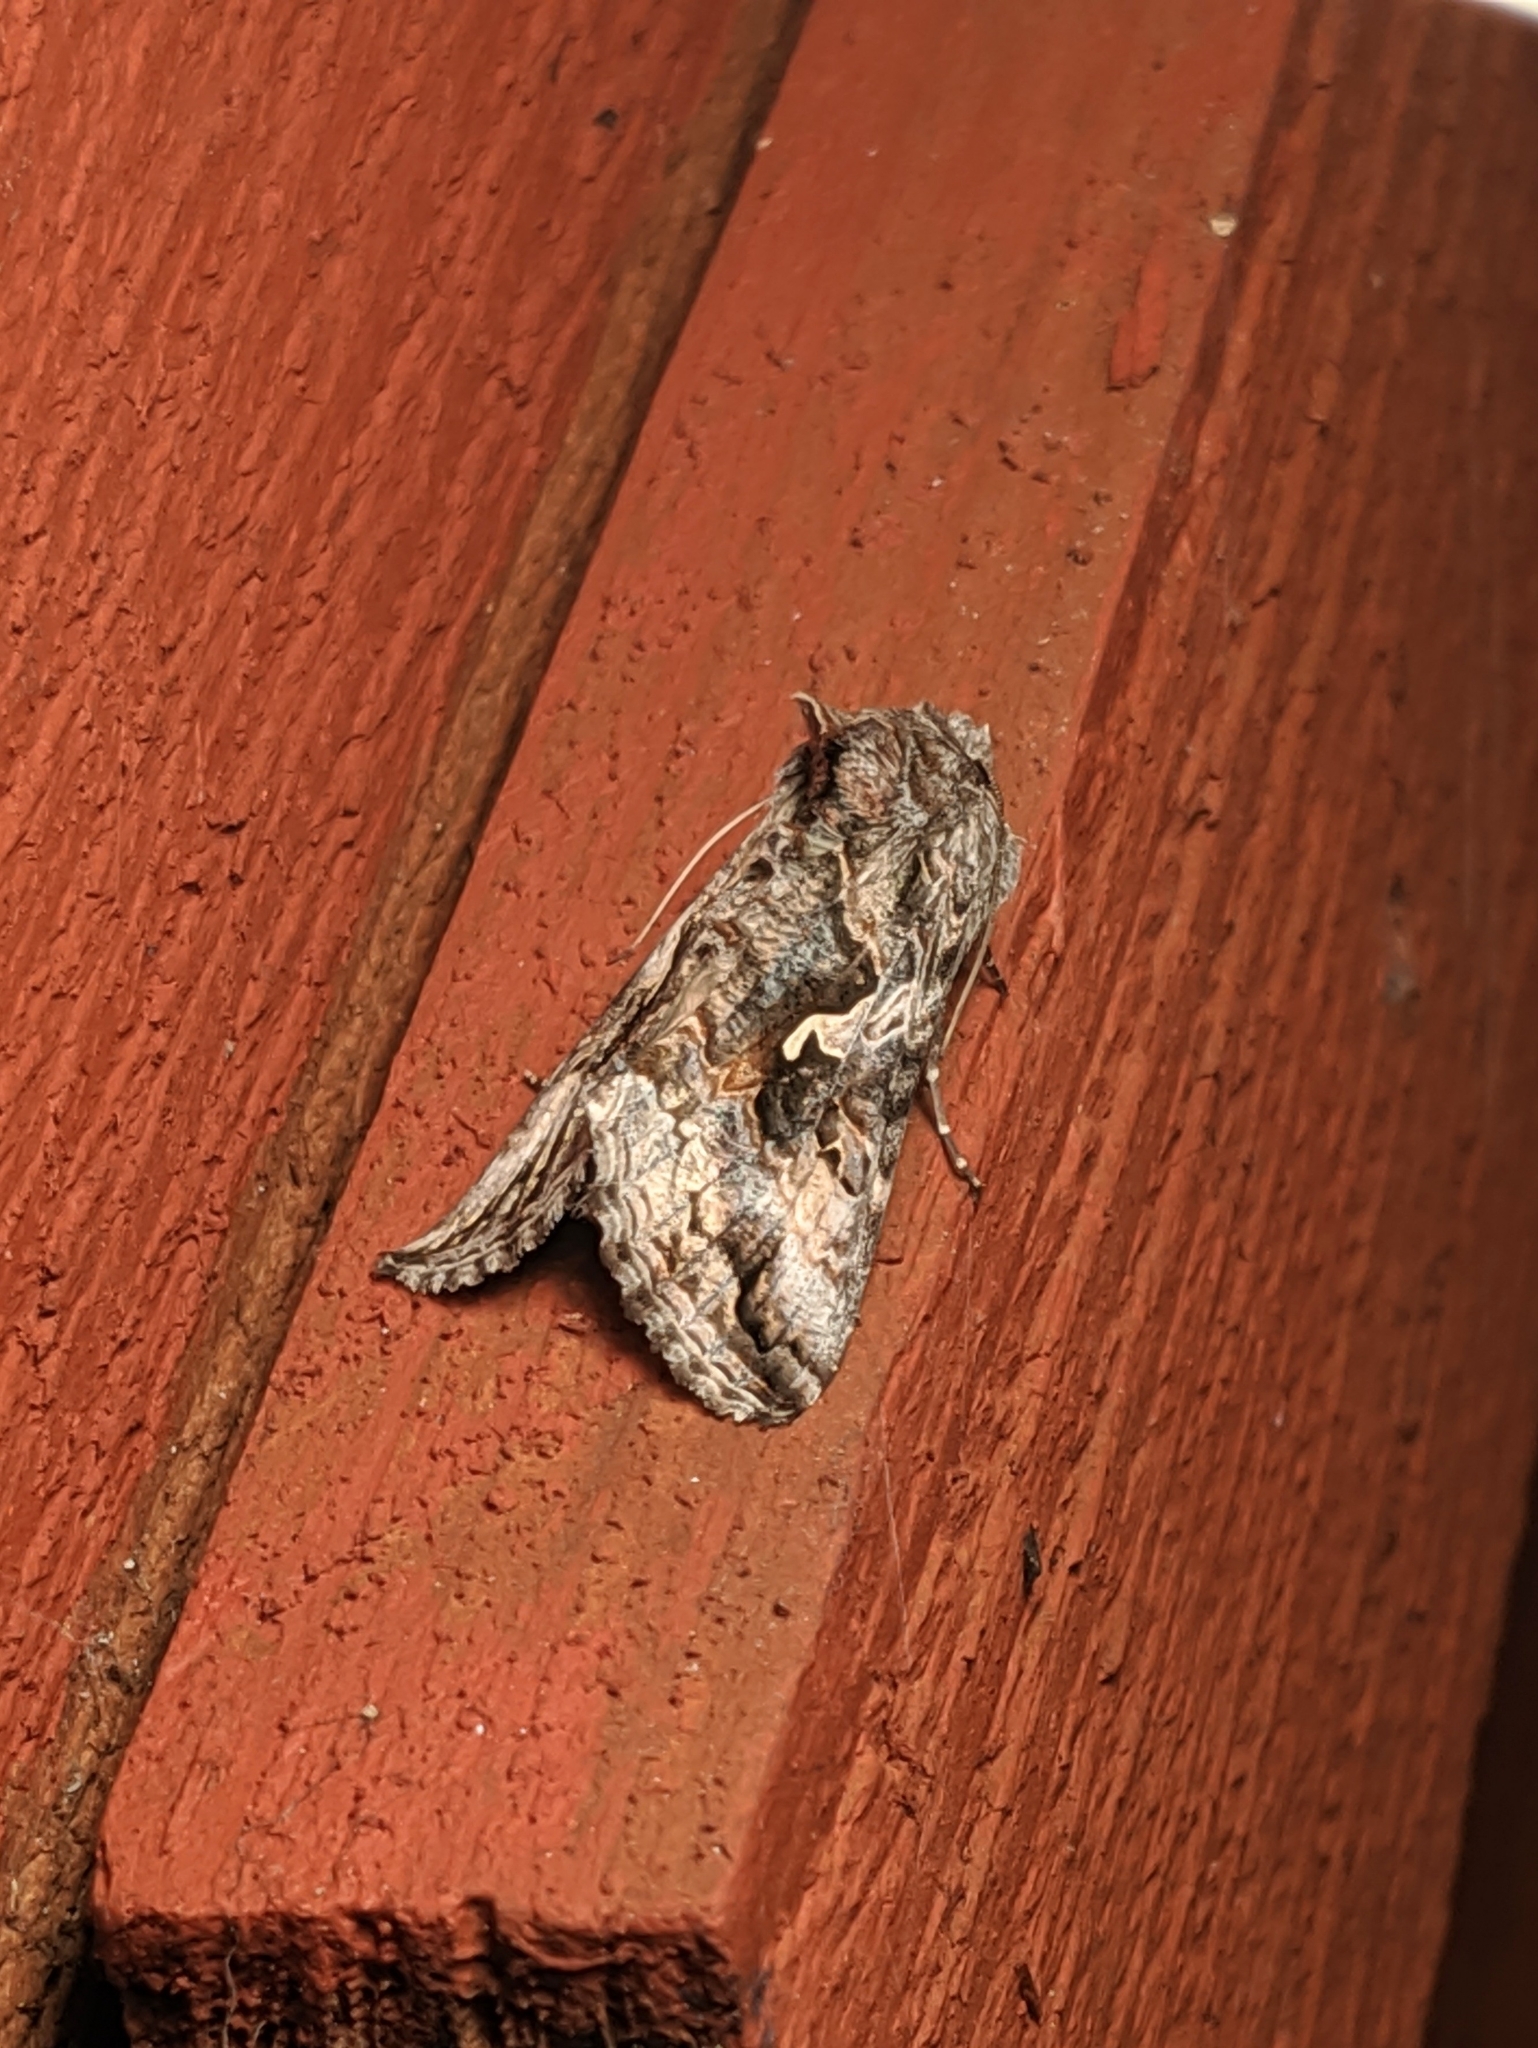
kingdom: Animalia
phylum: Arthropoda
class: Insecta
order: Lepidoptera
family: Noctuidae
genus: Autographa
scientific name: Autographa californica
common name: Alfalfa looper
